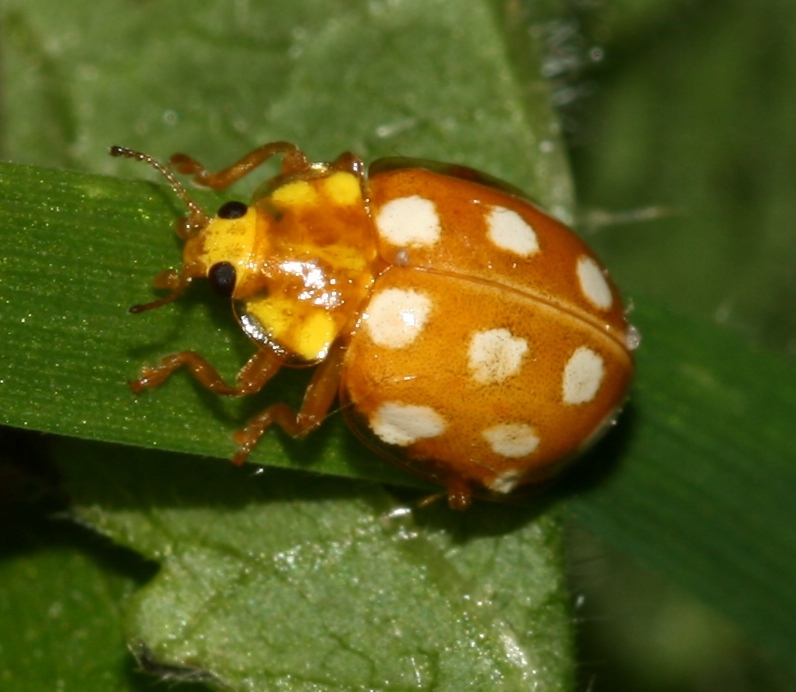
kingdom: Animalia
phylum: Arthropoda
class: Insecta
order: Coleoptera
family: Coccinellidae
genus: Halyzia
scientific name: Halyzia sedecimguttata
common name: Orange ladybird
